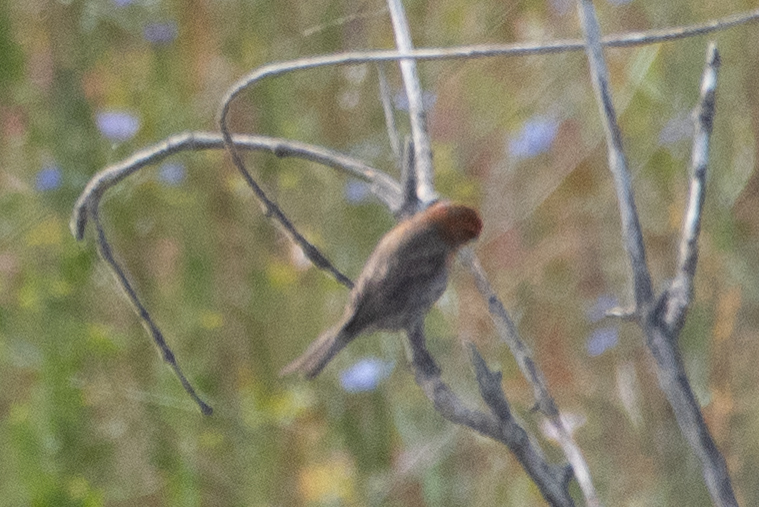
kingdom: Animalia
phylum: Chordata
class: Aves
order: Passeriformes
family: Fringillidae
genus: Haemorhous
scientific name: Haemorhous mexicanus
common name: House finch
